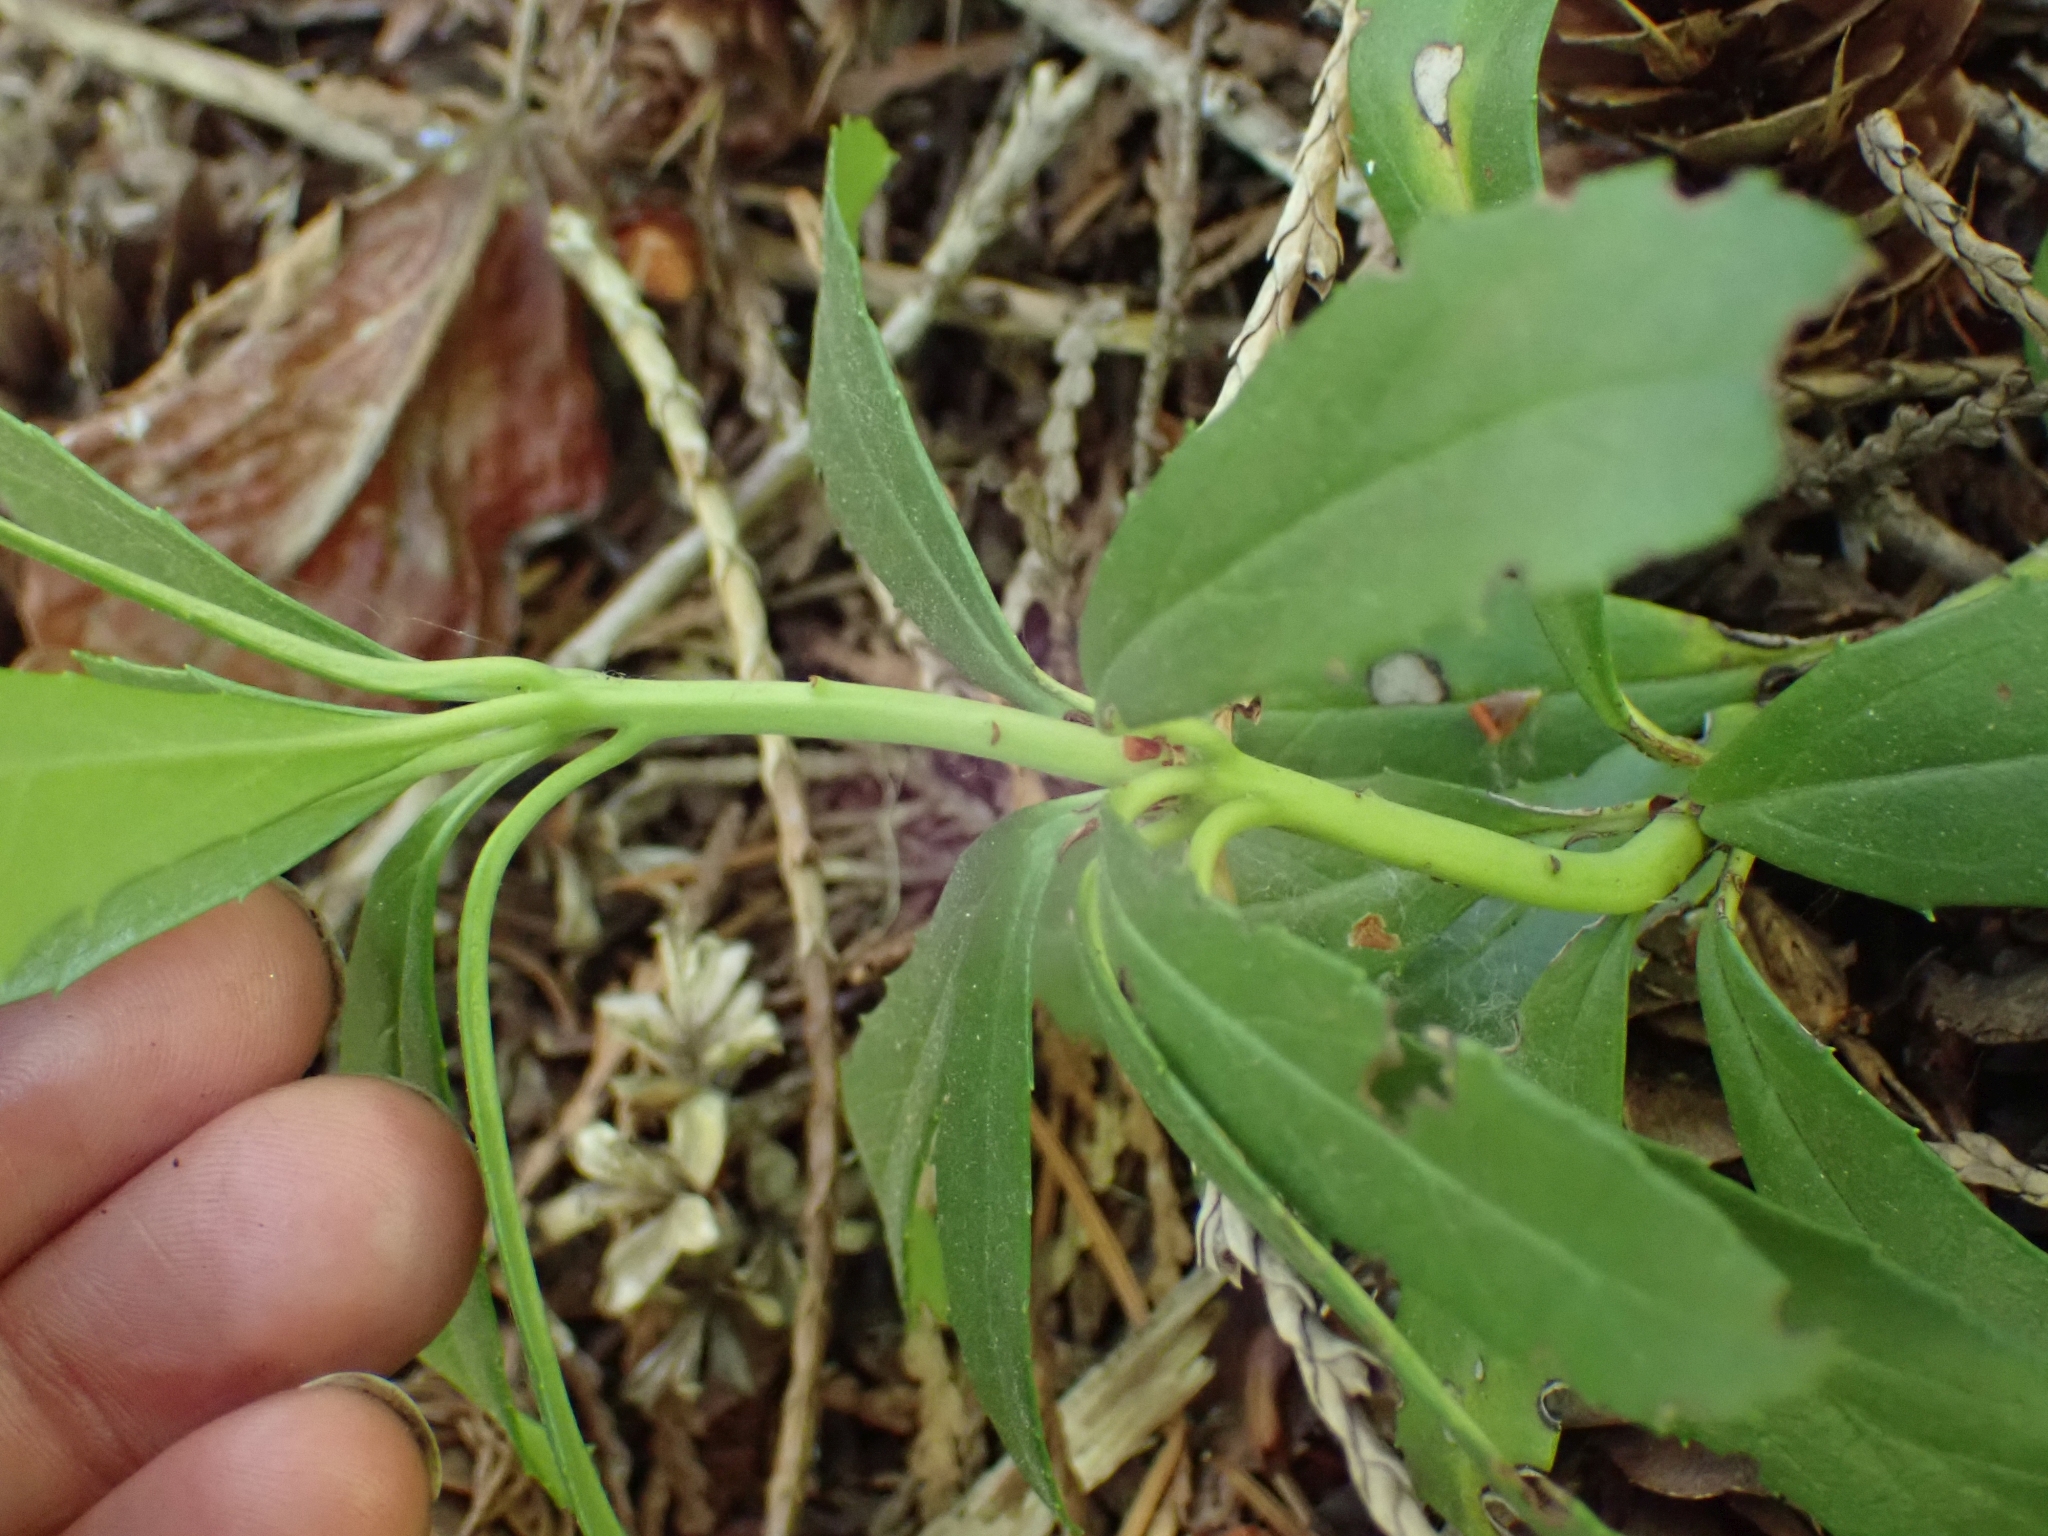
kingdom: Plantae
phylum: Tracheophyta
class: Magnoliopsida
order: Ericales
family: Ericaceae
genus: Chimaphila
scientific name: Chimaphila umbellata
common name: Pipsissewa
